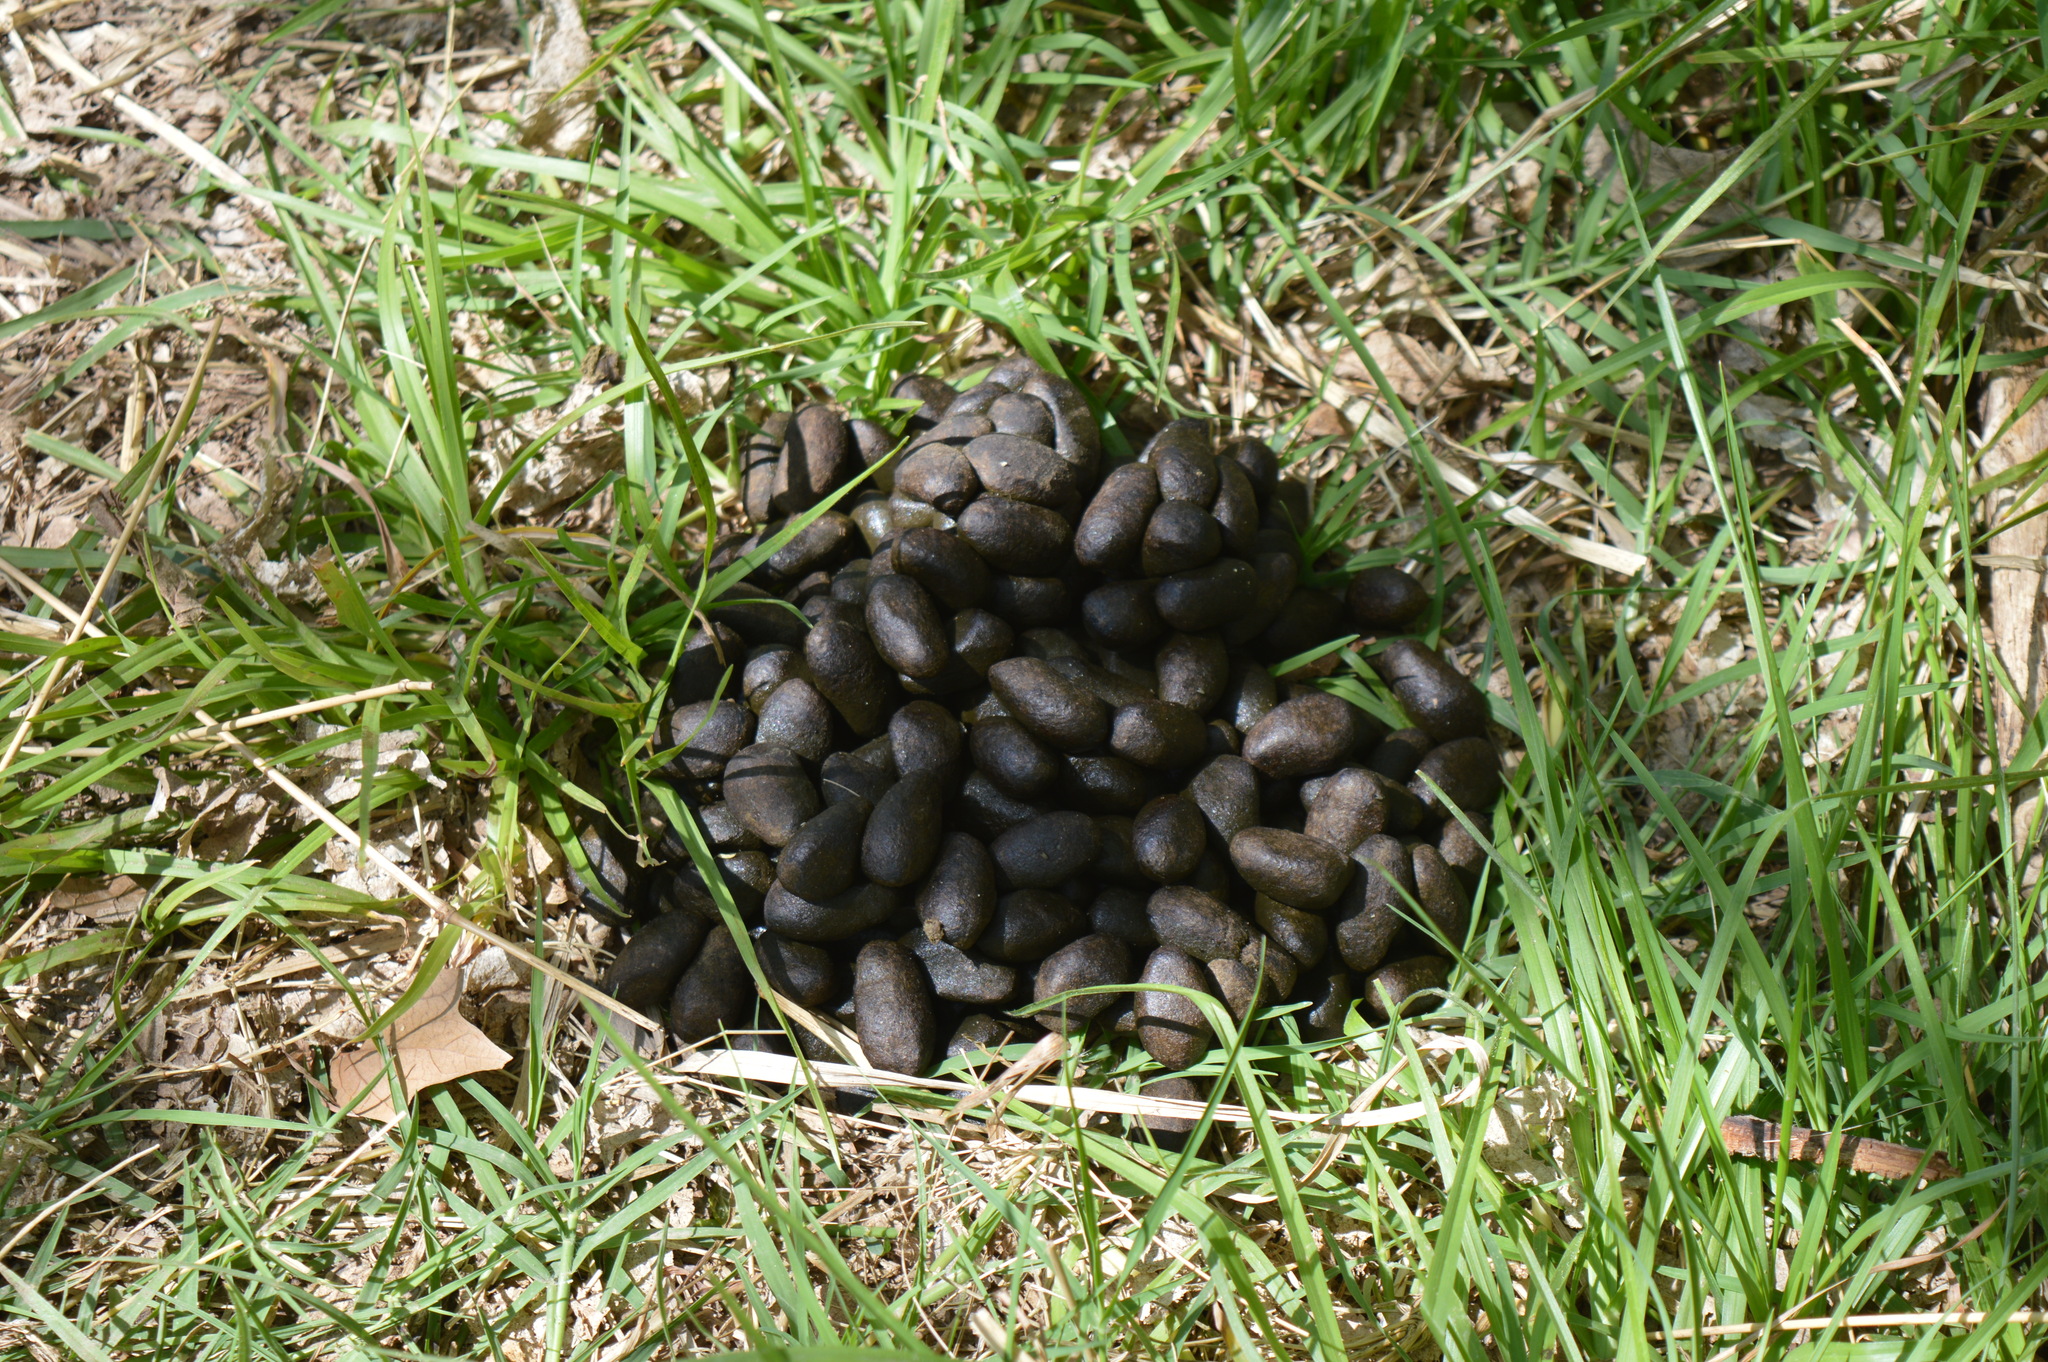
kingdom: Animalia
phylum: Chordata
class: Mammalia
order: Rodentia
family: Caviidae
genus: Hydrochoerus
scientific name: Hydrochoerus hydrochaeris
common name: Capybara
